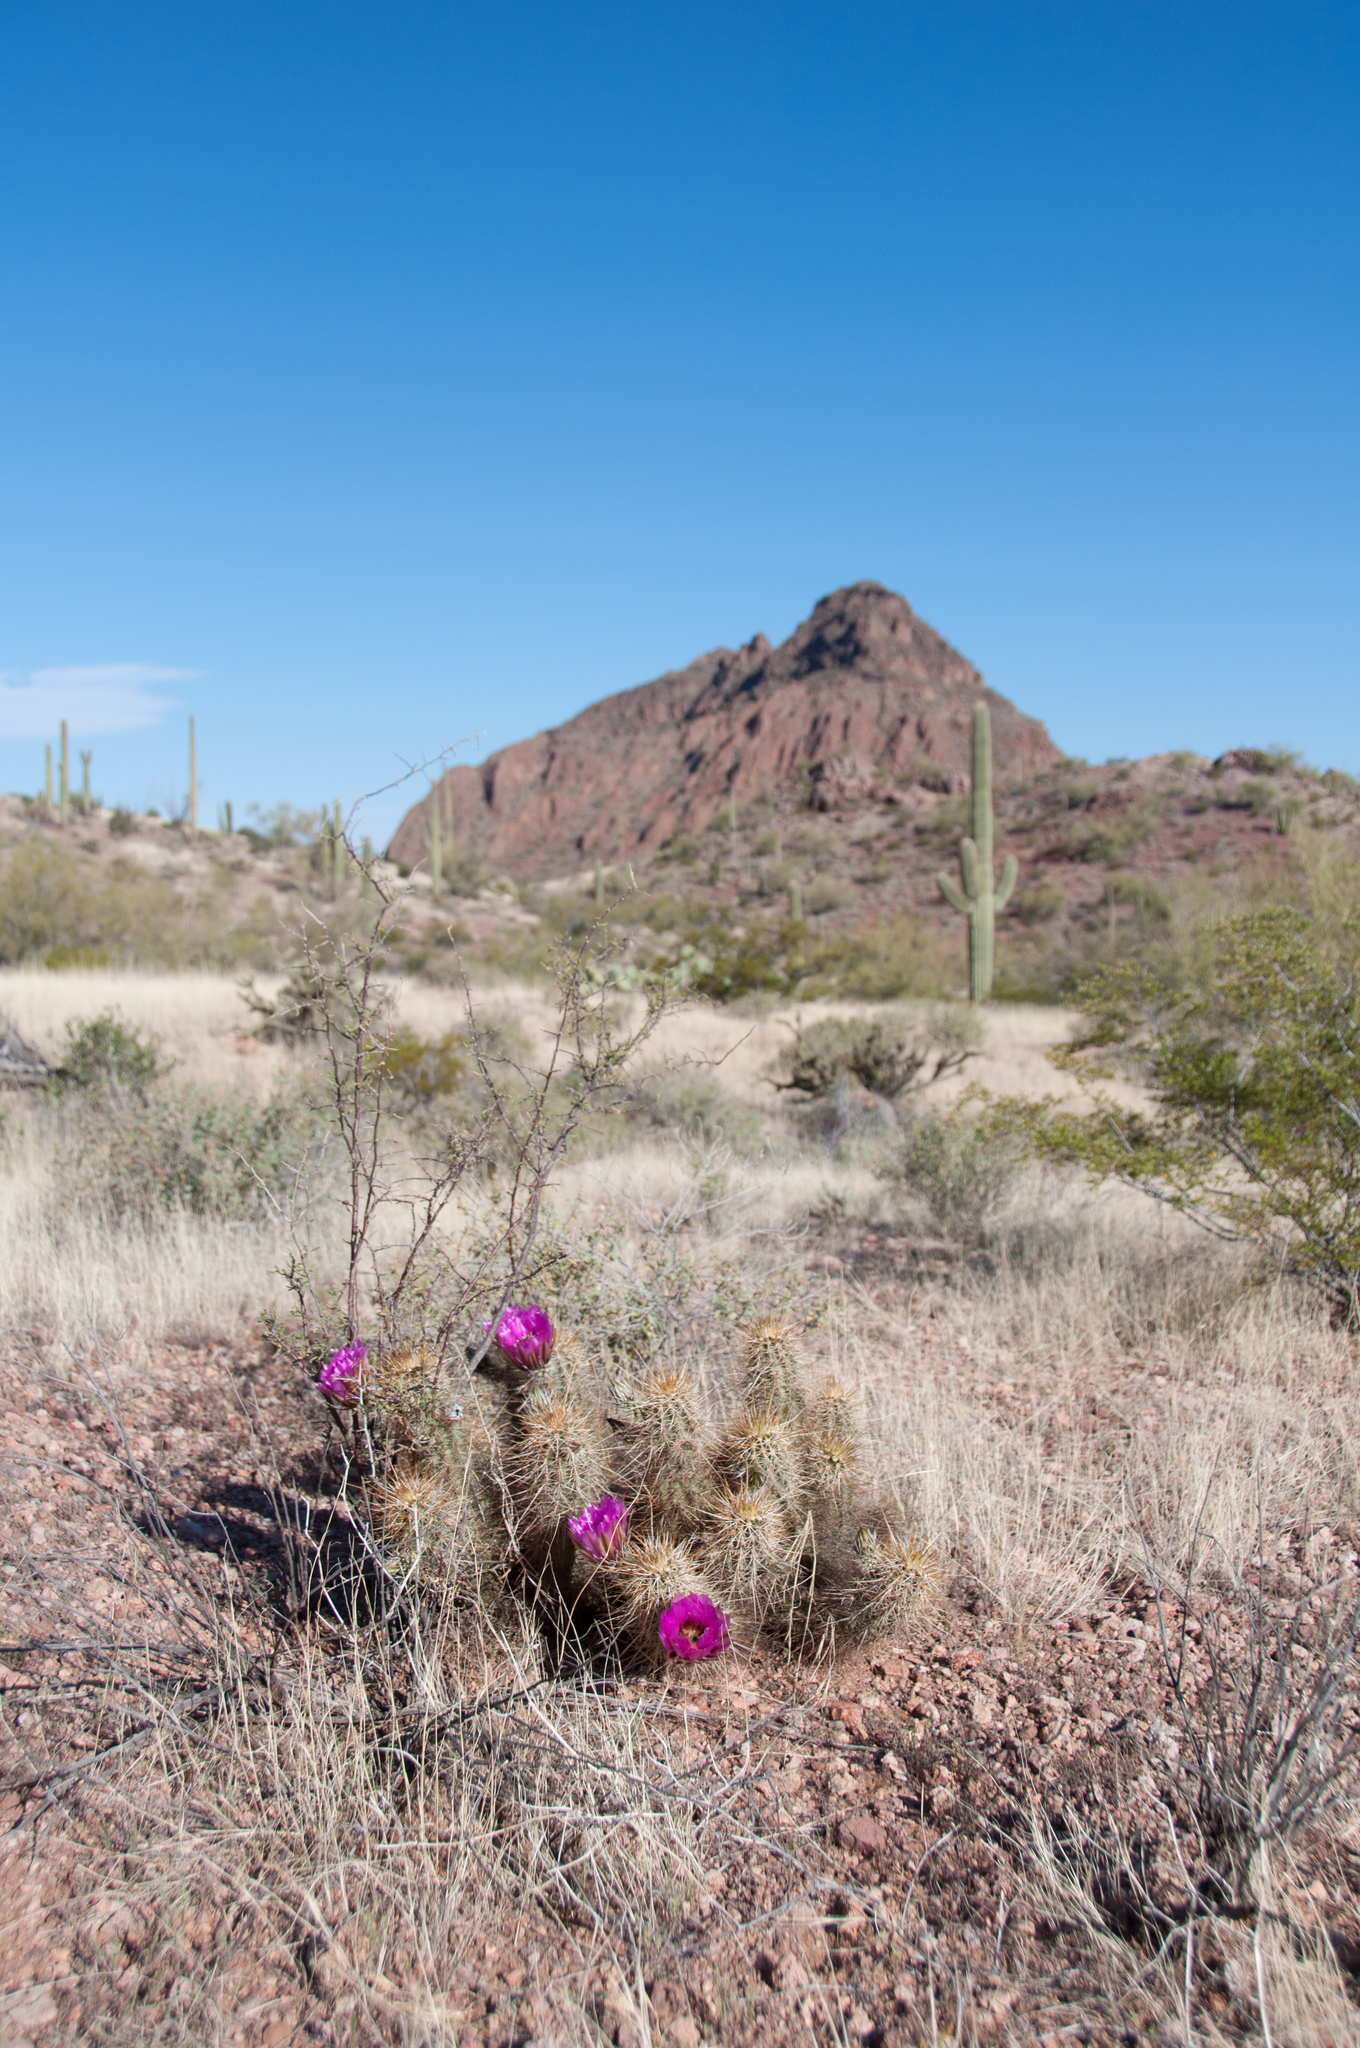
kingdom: Plantae
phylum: Tracheophyta
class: Magnoliopsida
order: Caryophyllales
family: Cactaceae
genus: Echinocereus
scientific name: Echinocereus engelmannii
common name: Engelmann's hedgehog cactus
